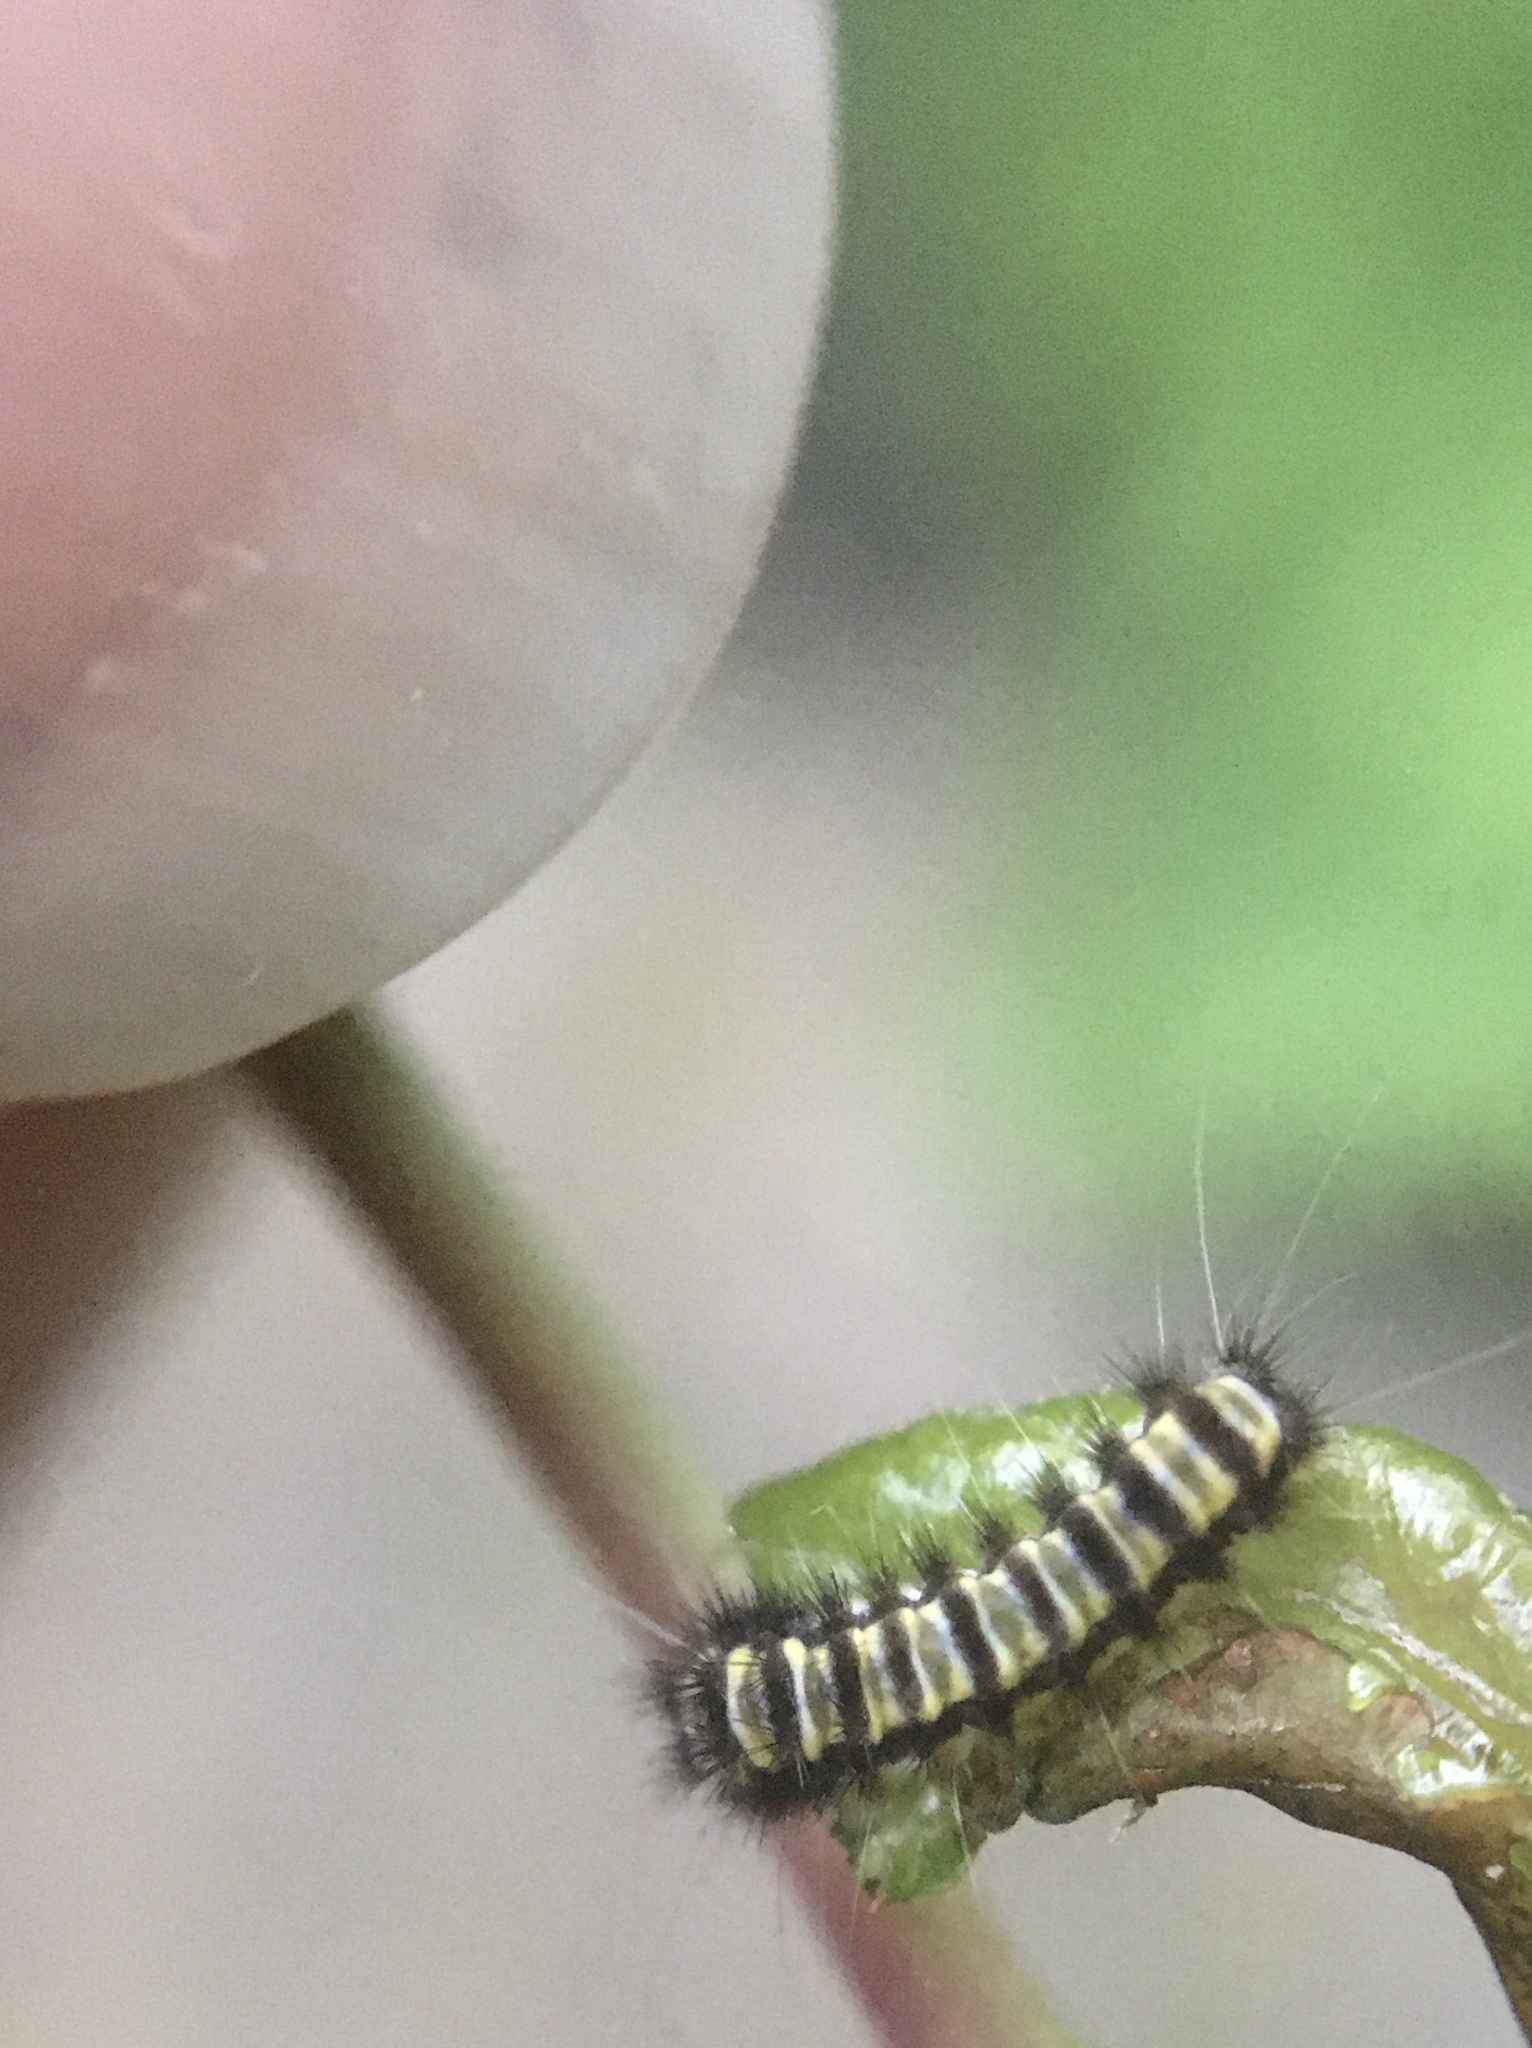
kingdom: Animalia
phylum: Arthropoda
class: Insecta
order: Lepidoptera
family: Zygaenidae
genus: Harrisina
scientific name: Harrisina americana
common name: Grapeleaf skeletonizer moth
